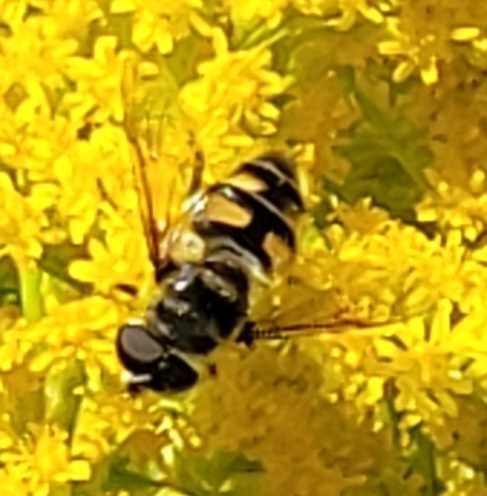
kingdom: Animalia
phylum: Arthropoda
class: Insecta
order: Diptera
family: Syrphidae
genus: Myathropa
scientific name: Myathropa florea
